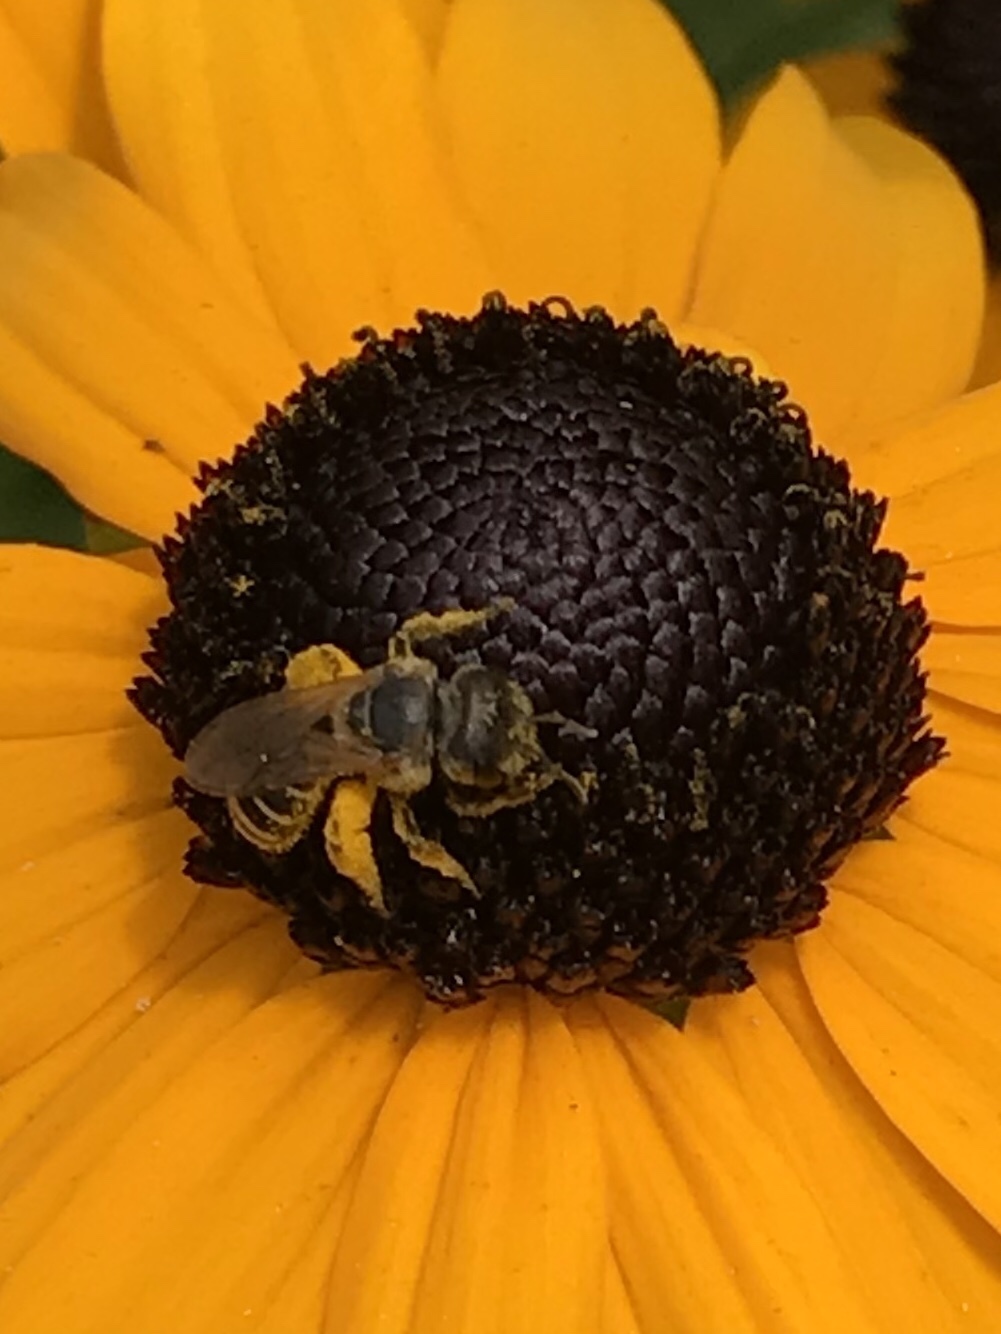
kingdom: Animalia
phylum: Arthropoda
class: Insecta
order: Hymenoptera
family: Halictidae
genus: Halictus
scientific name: Halictus ligatus
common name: Ligated furrow bee
